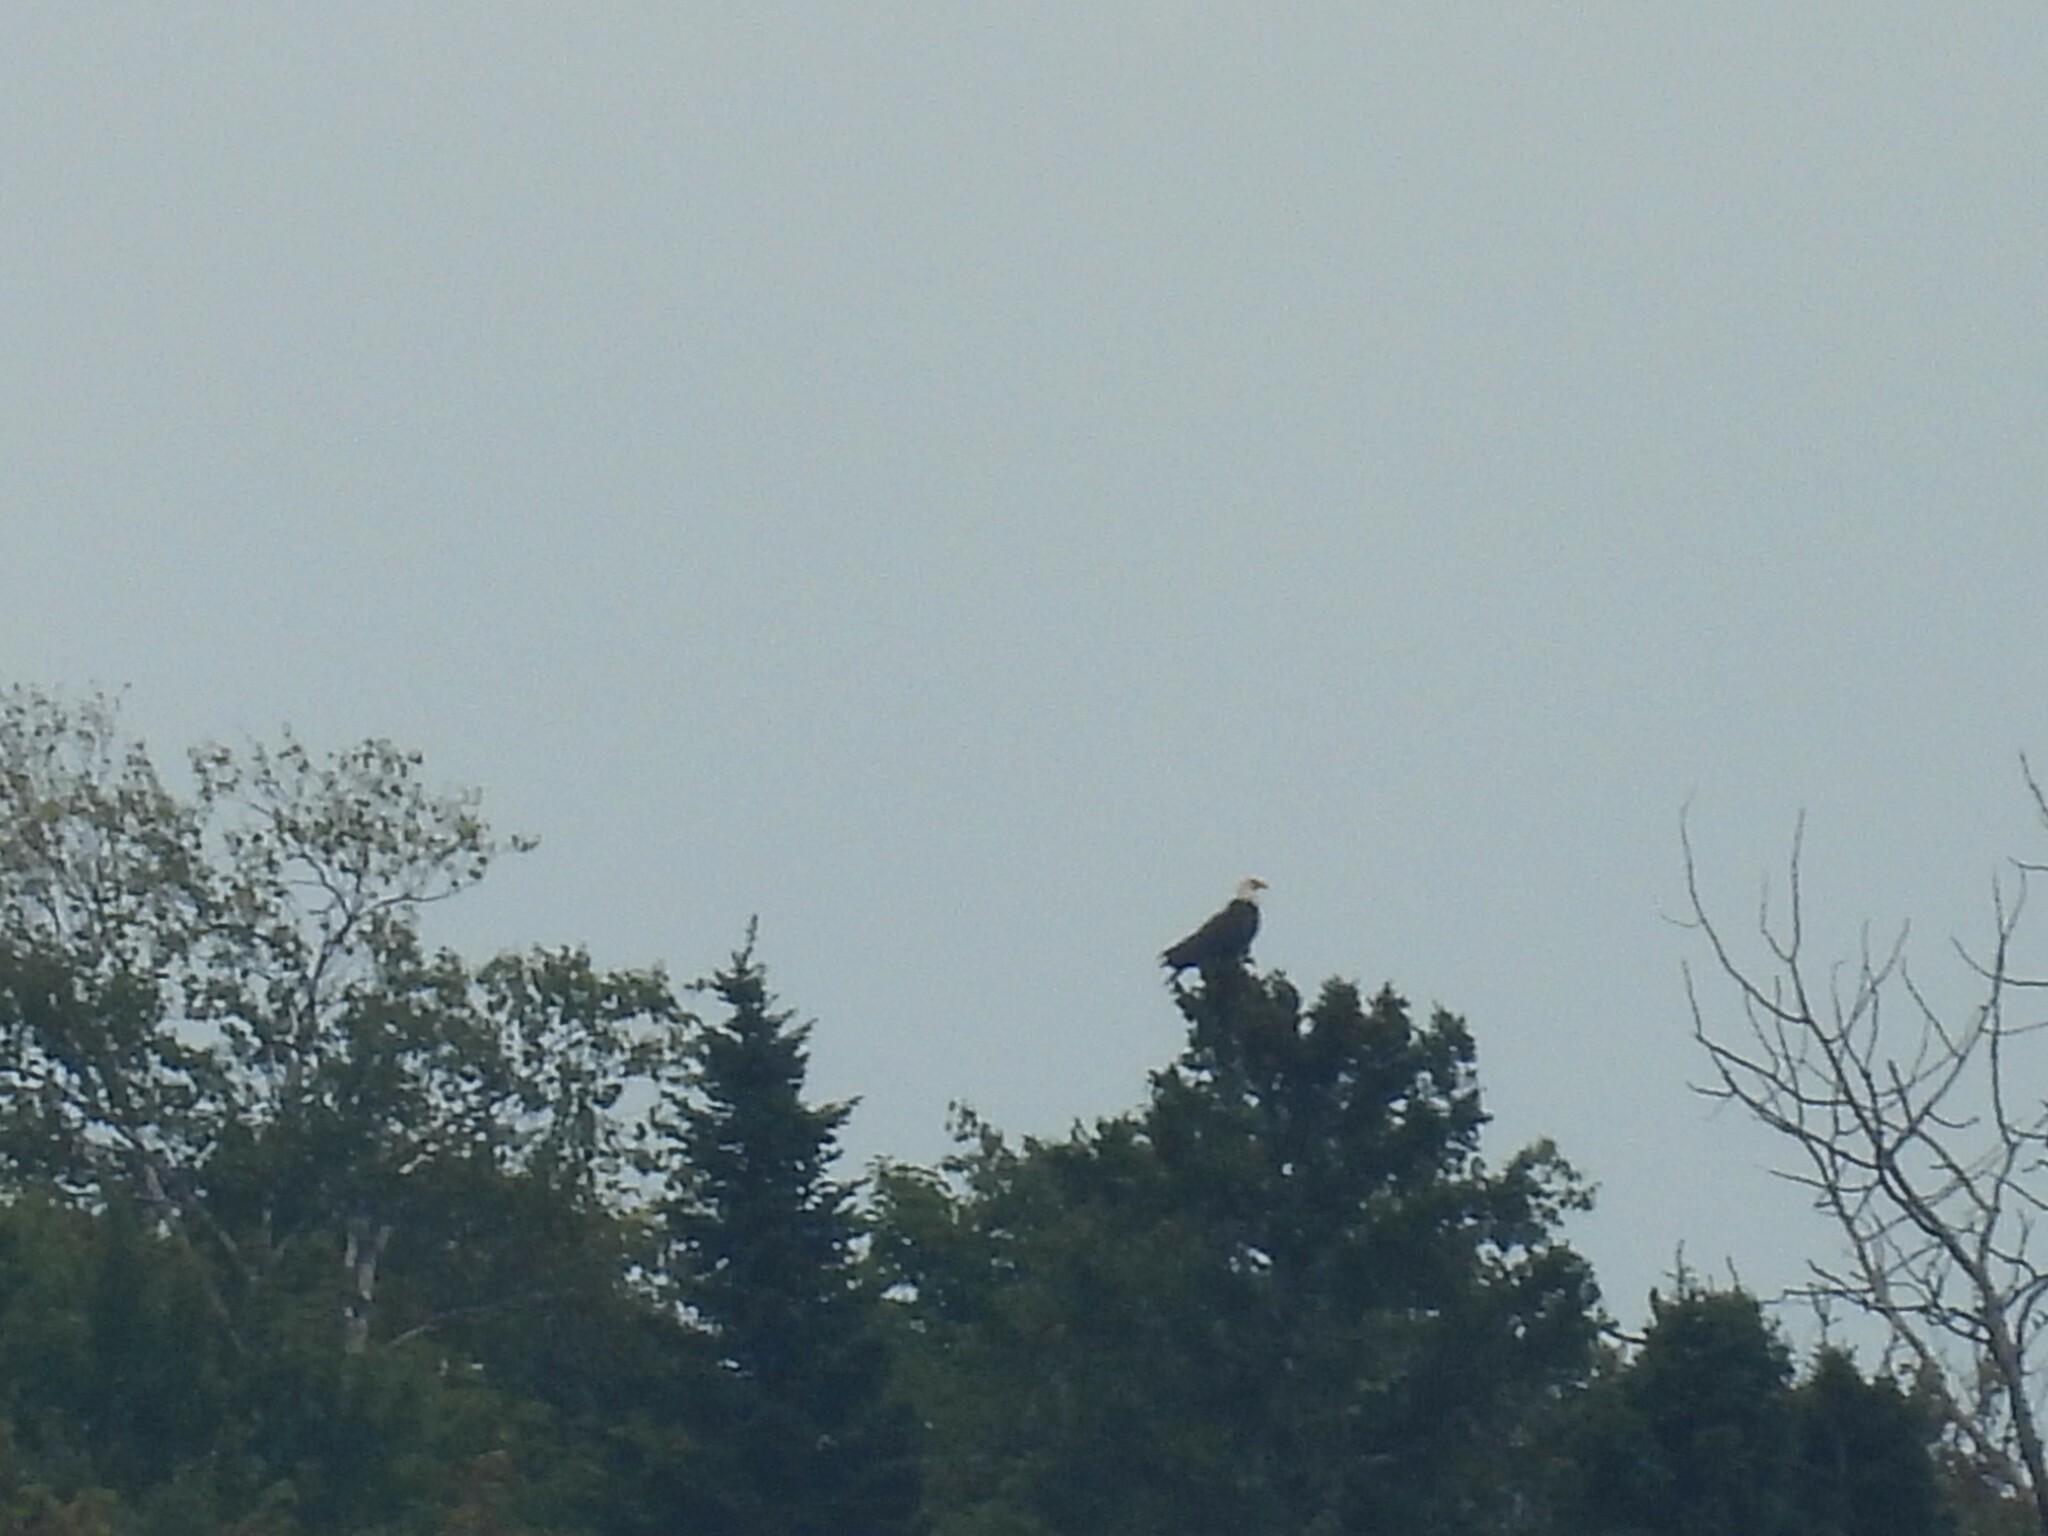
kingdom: Animalia
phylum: Chordata
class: Aves
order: Accipitriformes
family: Accipitridae
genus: Haliaeetus
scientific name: Haliaeetus leucocephalus
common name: Bald eagle
